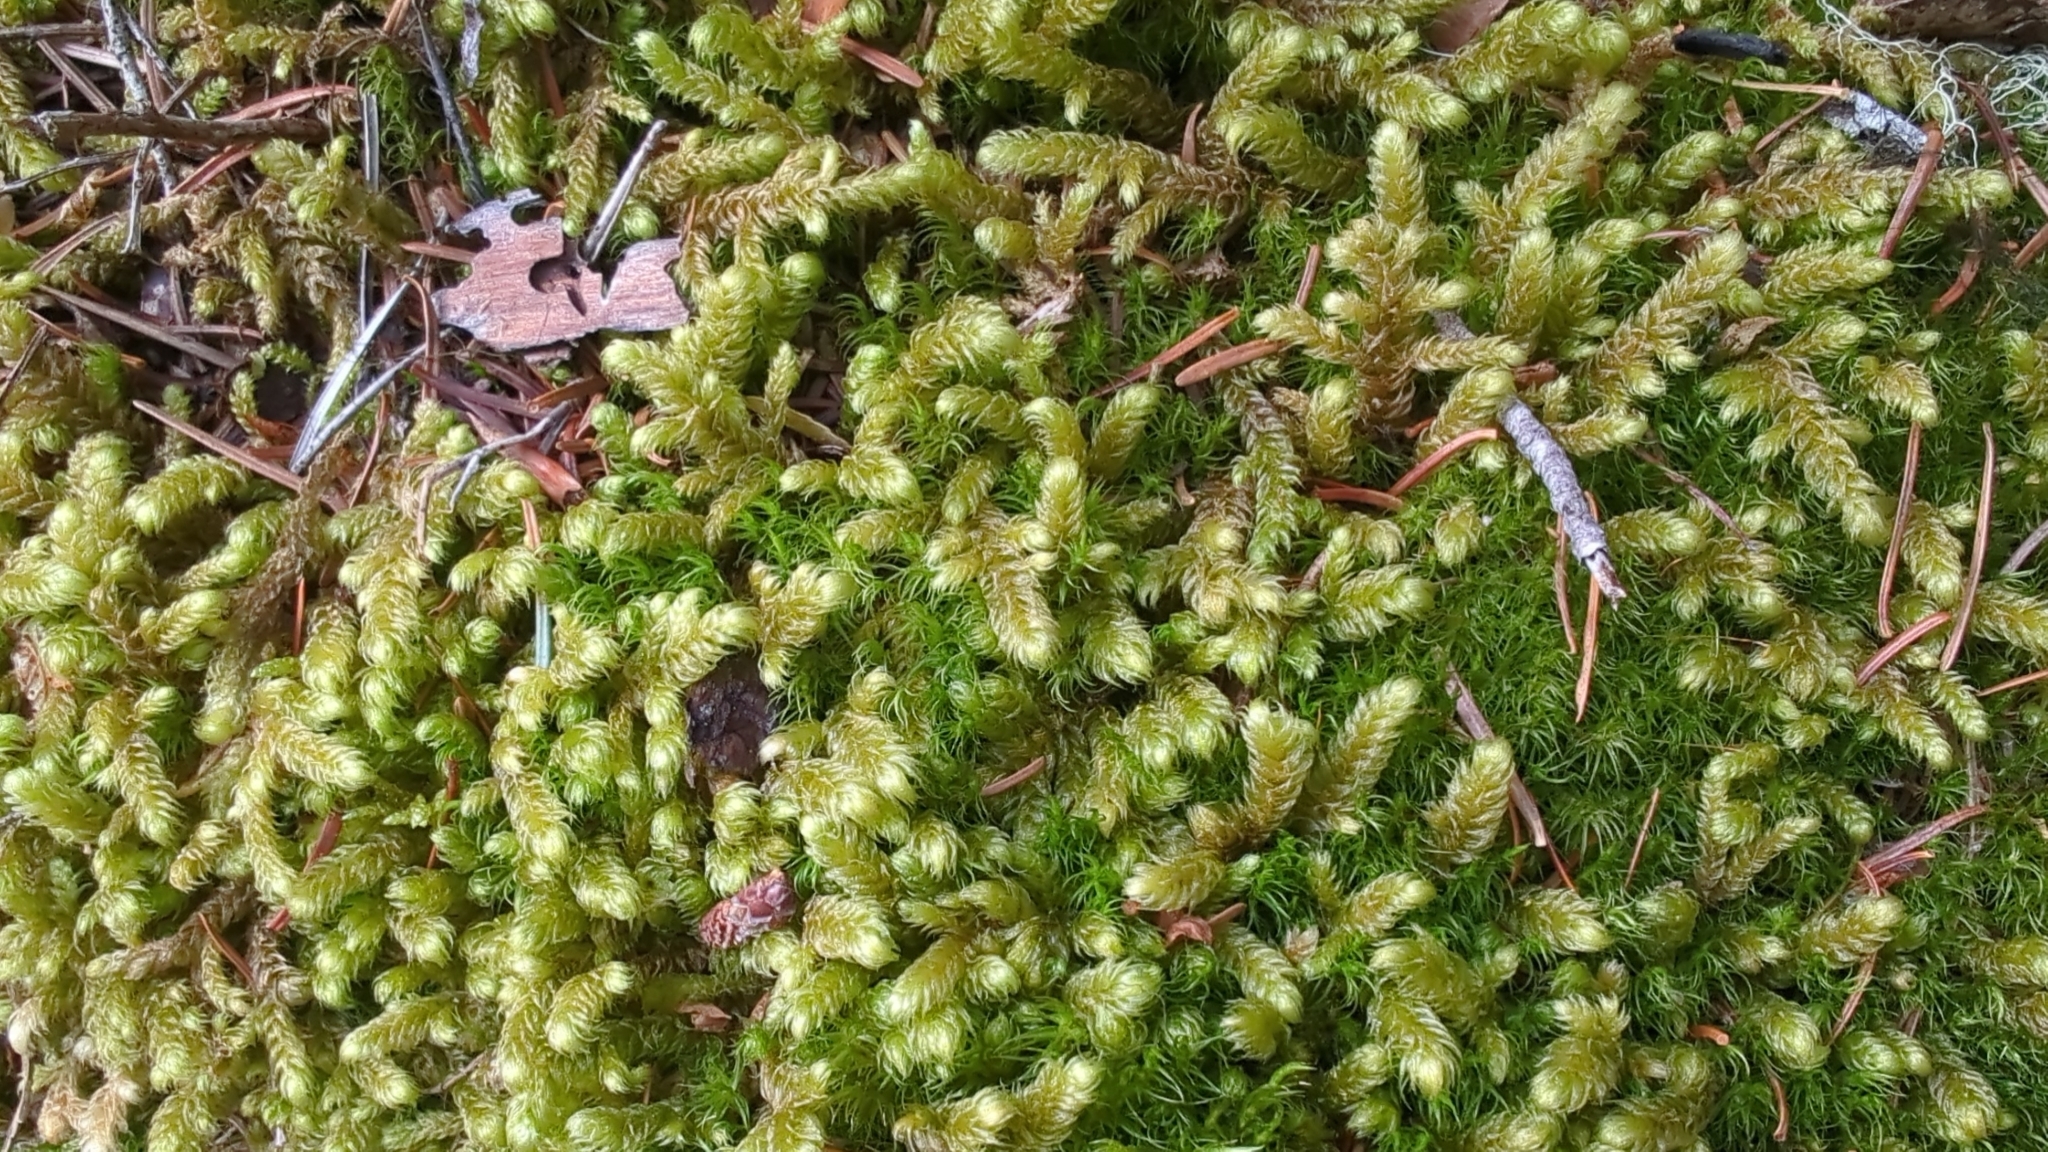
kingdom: Plantae
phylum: Bryophyta
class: Bryopsida
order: Hypnales
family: Hylocomiaceae
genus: Rhytidiopsis
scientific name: Rhytidiopsis robusta
